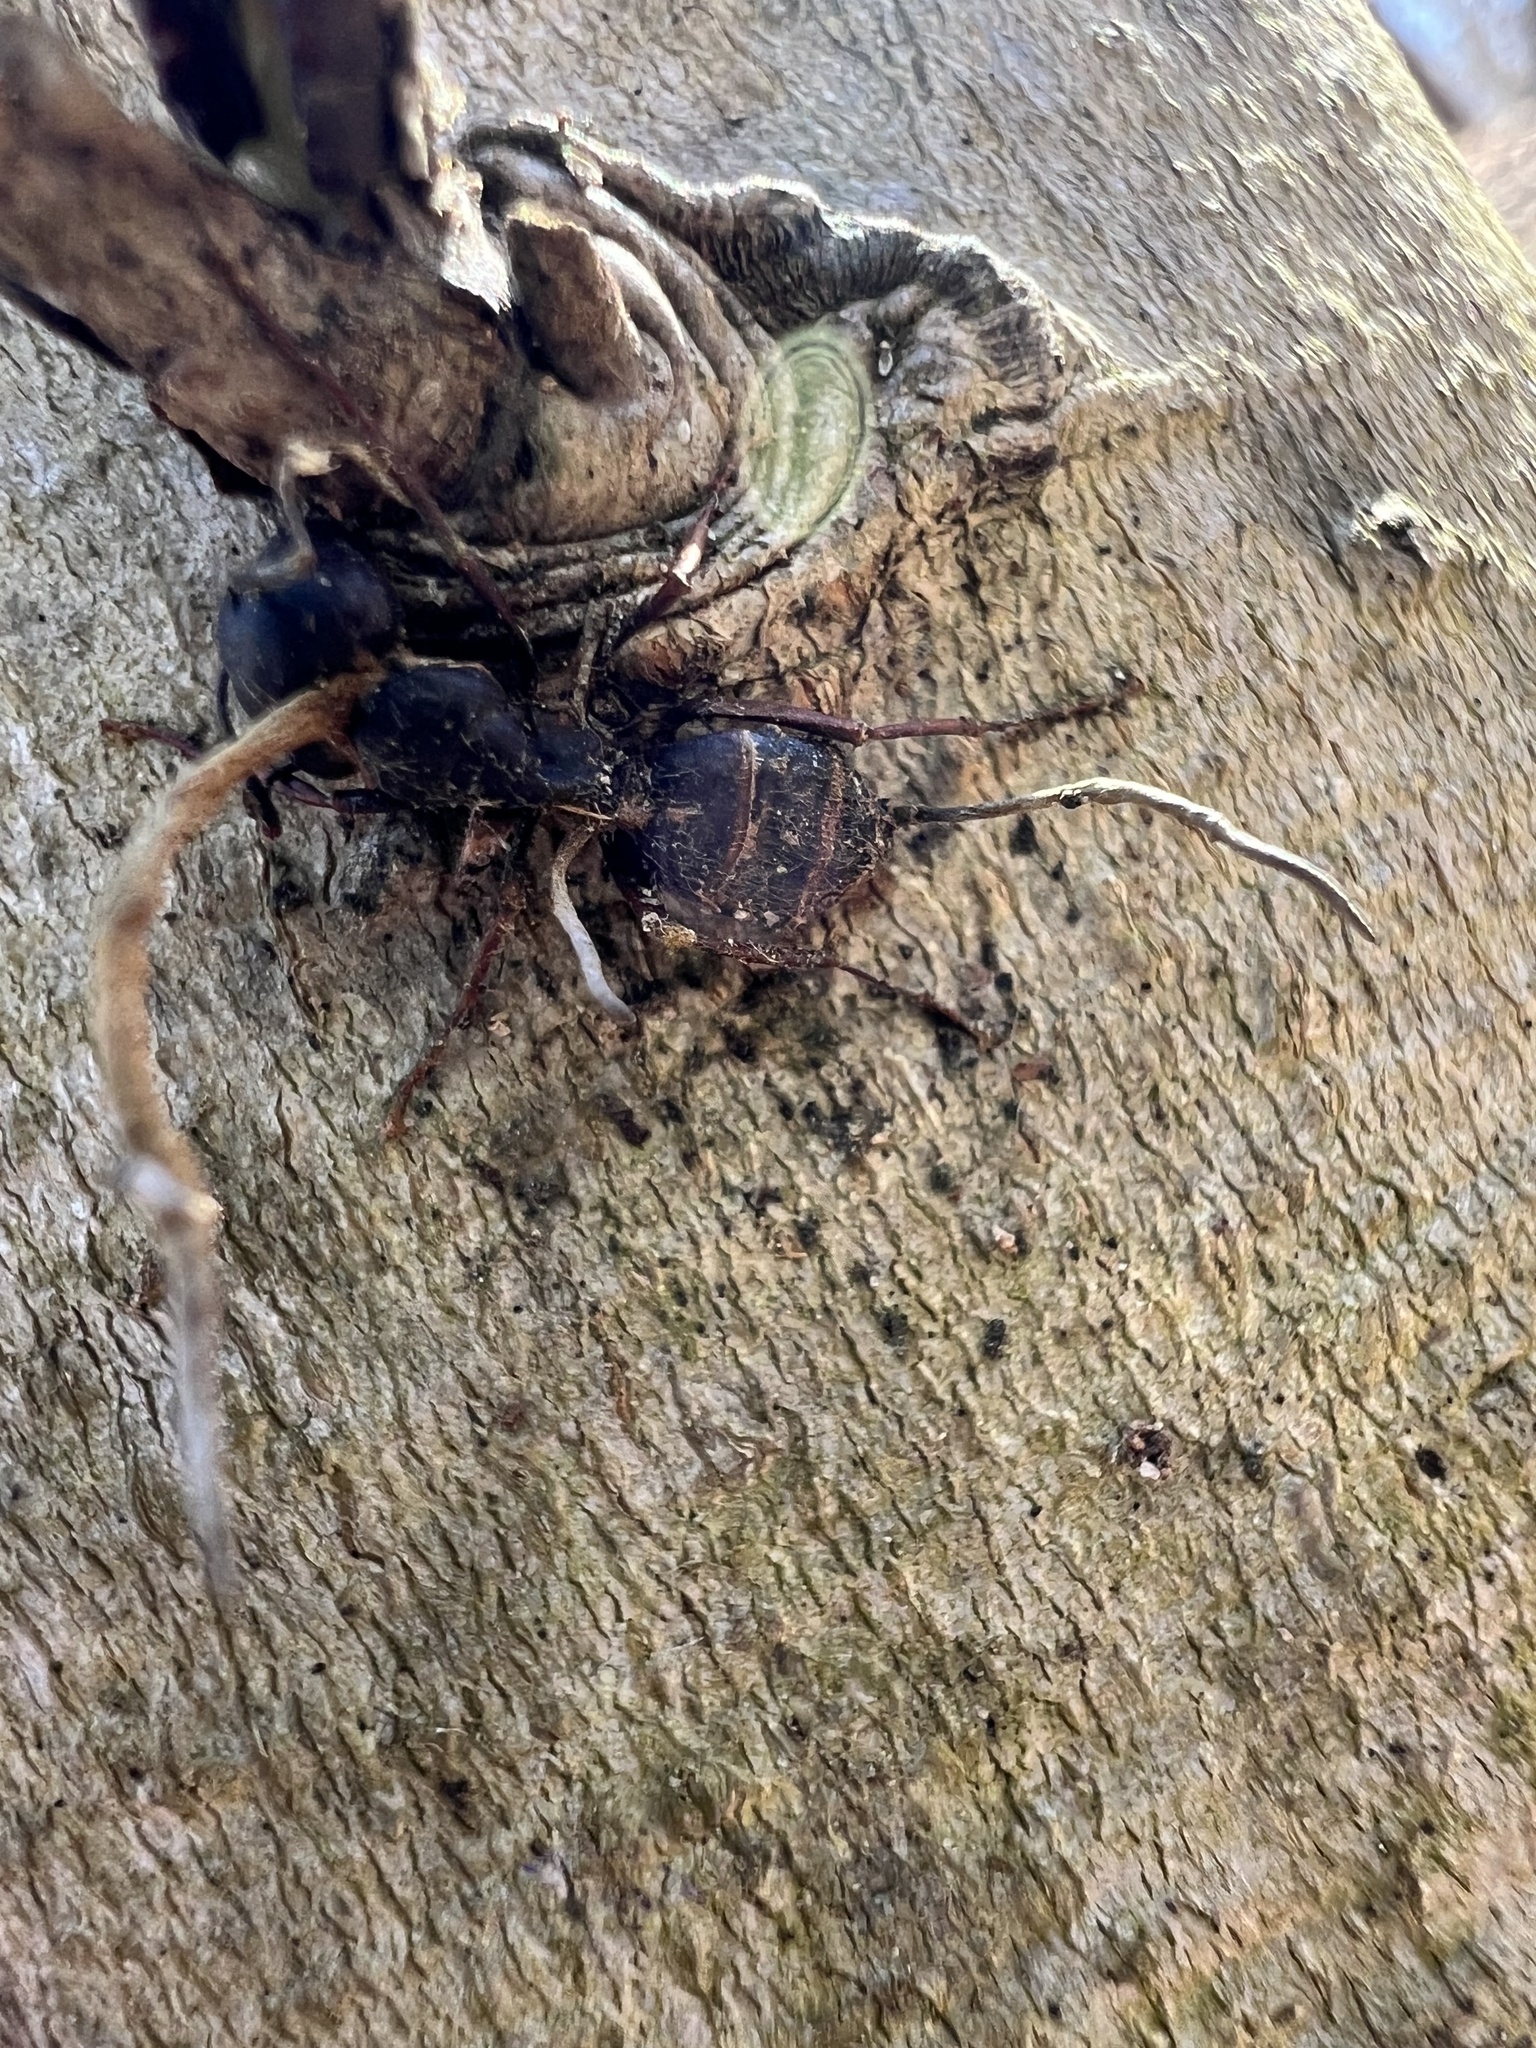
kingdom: Fungi
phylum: Ascomycota
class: Sordariomycetes
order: Hypocreales
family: Ophiocordycipitaceae
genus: Ophiocordyceps
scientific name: Ophiocordyceps kimflemingiae
